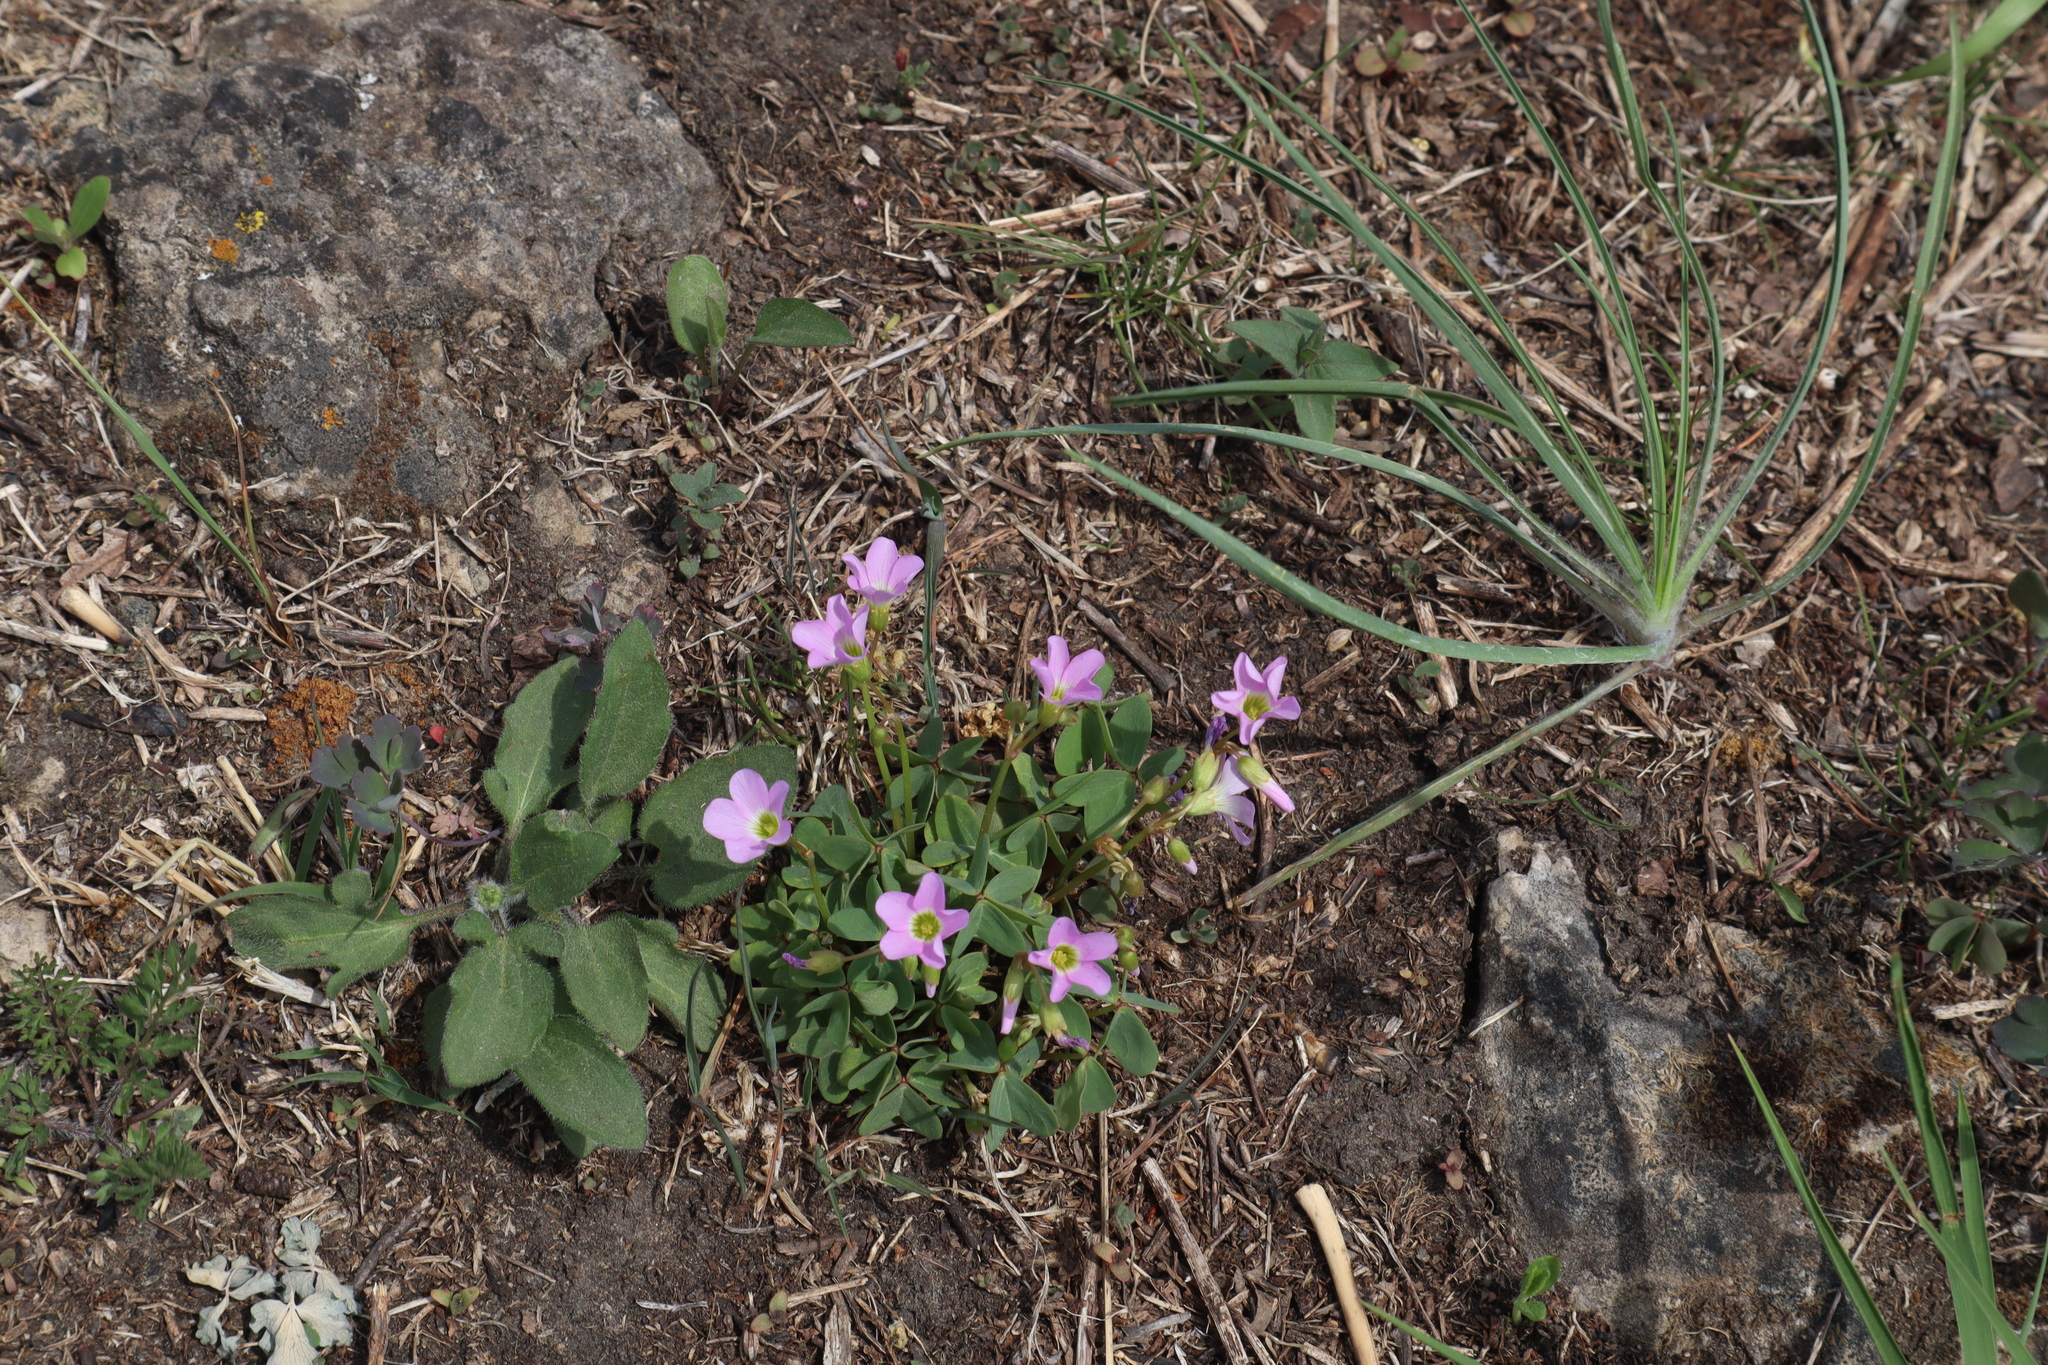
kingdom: Plantae
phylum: Tracheophyta
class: Magnoliopsida
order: Oxalidales
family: Oxalidaceae
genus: Oxalis
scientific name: Oxalis violacea
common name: Violet wood-sorrel
